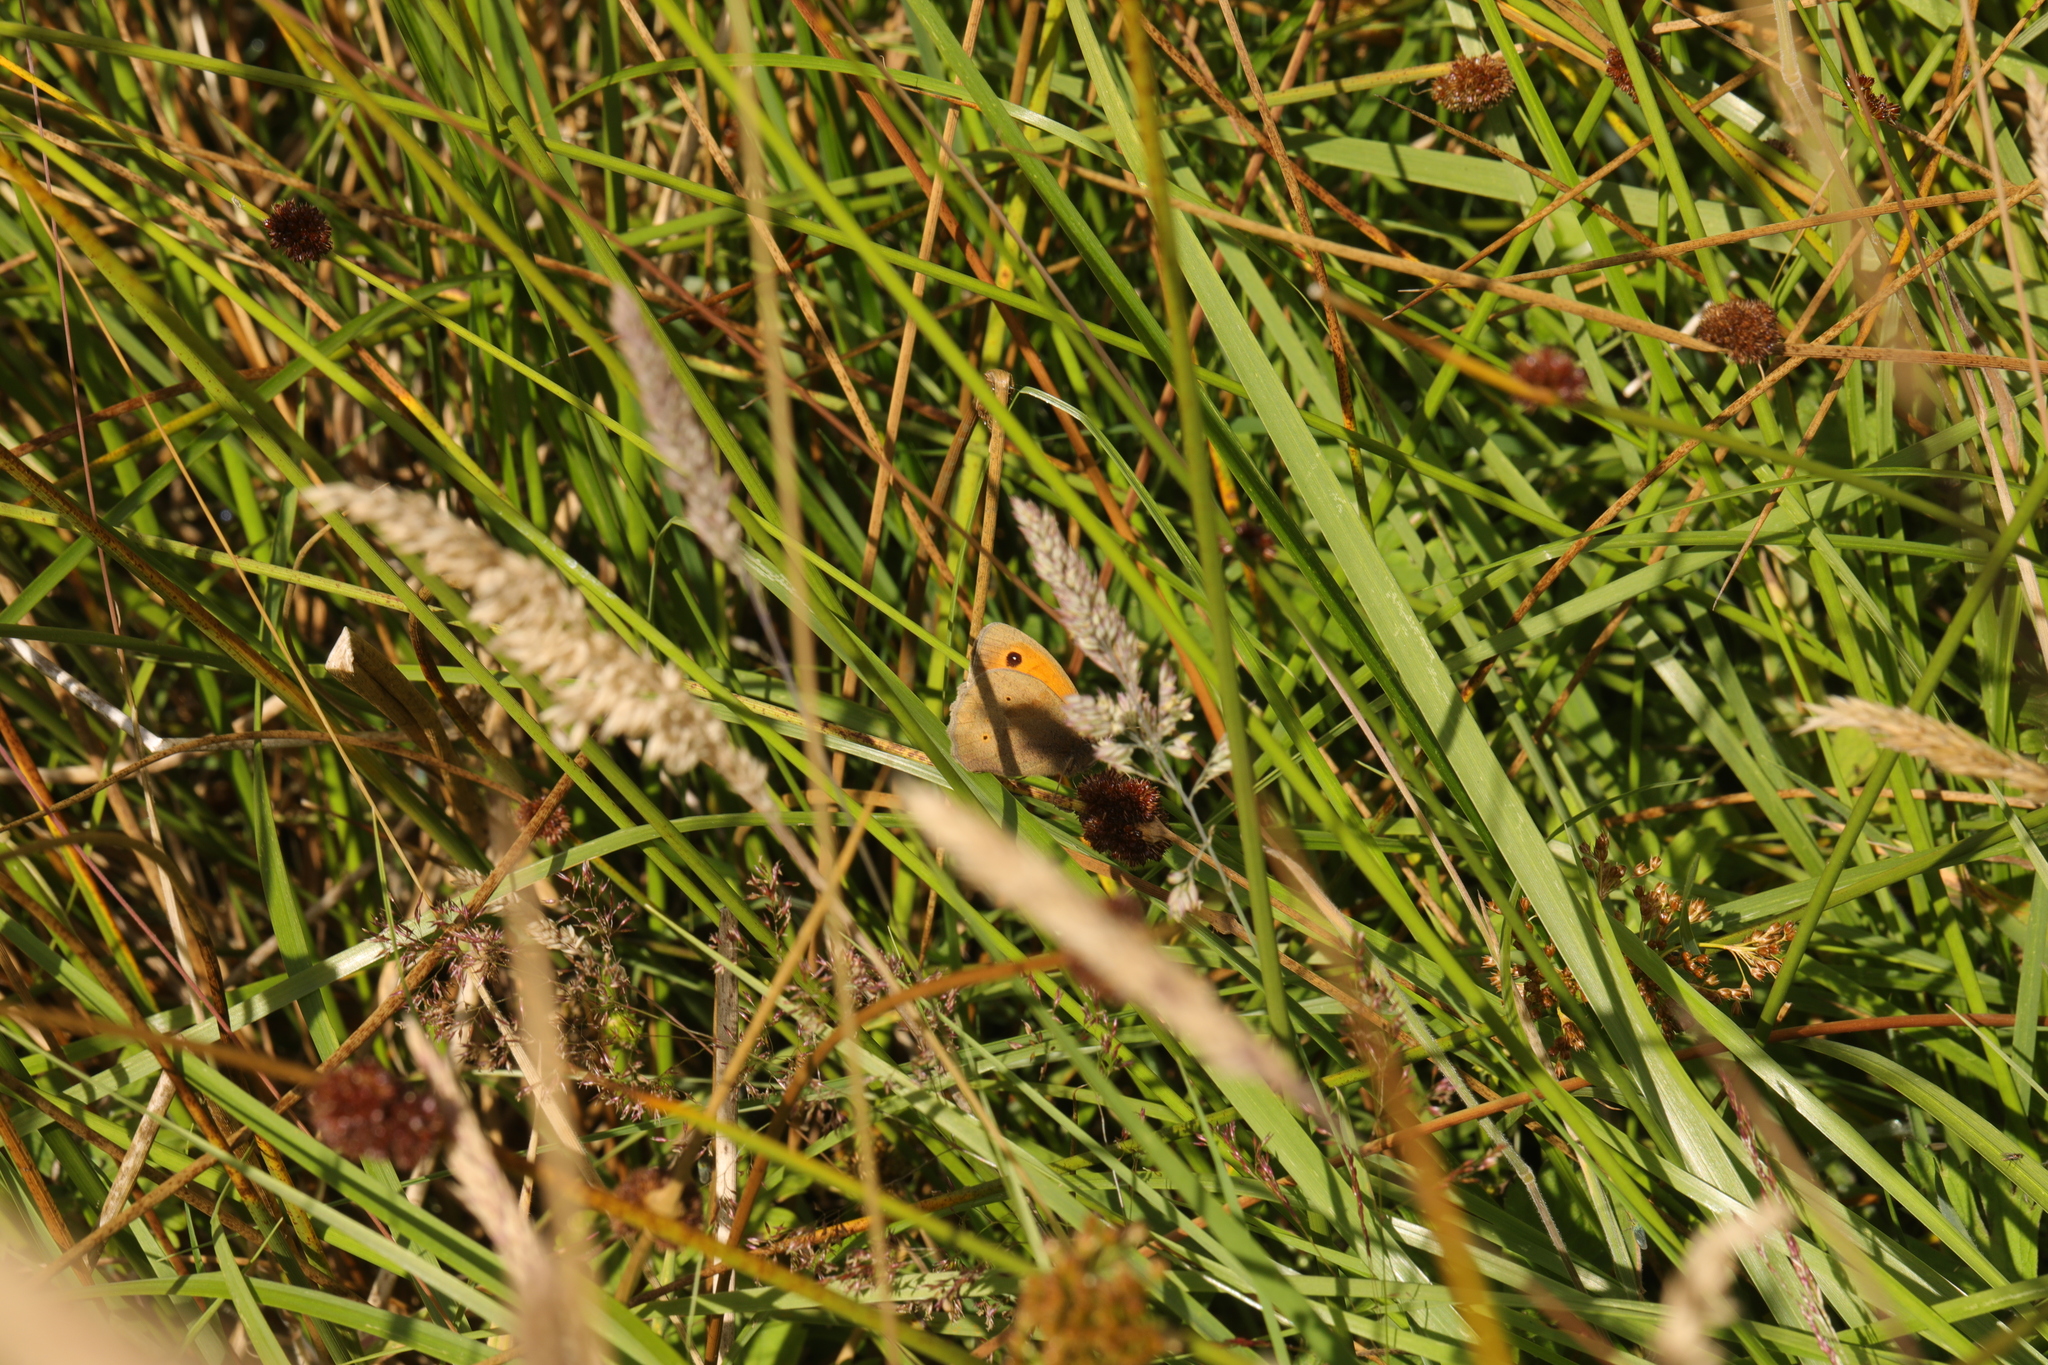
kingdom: Animalia
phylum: Arthropoda
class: Insecta
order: Lepidoptera
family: Nymphalidae
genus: Maniola
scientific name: Maniola jurtina
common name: Meadow brown
